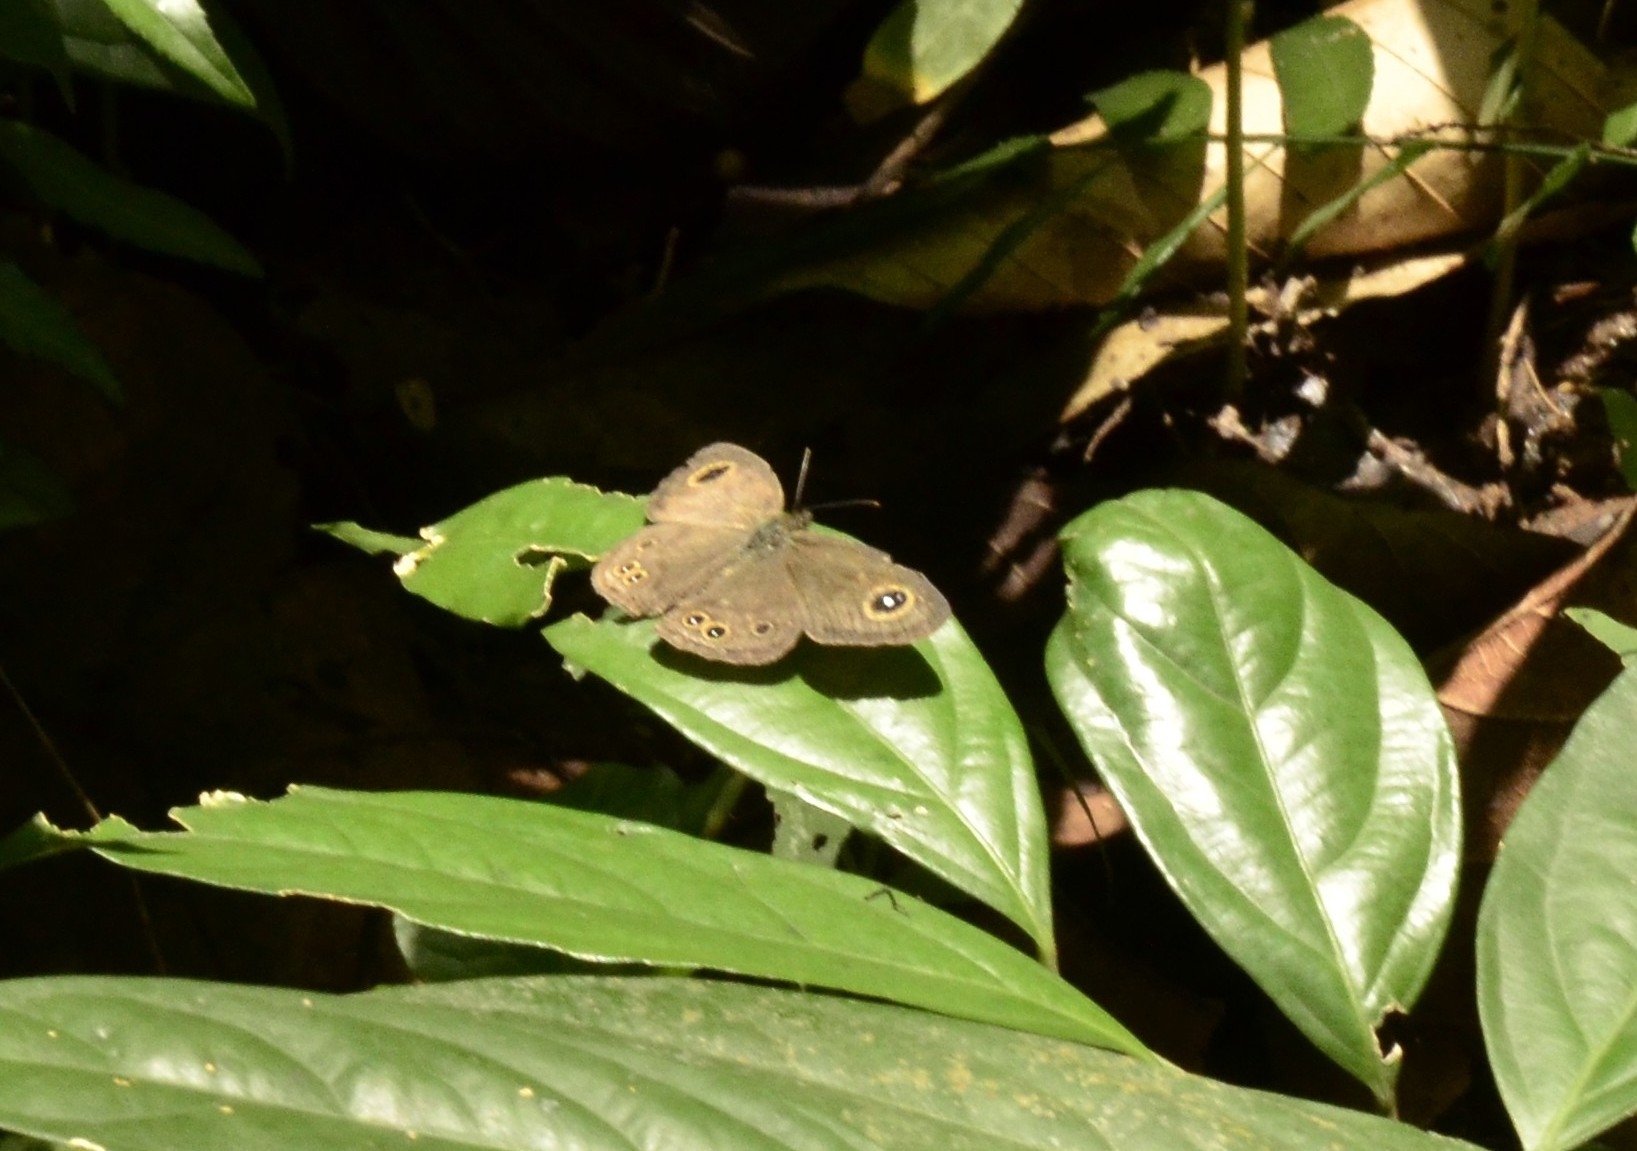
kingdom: Animalia
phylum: Arthropoda
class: Insecta
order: Lepidoptera
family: Nymphalidae
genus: Ypthima
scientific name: Ypthima baldus
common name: Common five-ring
